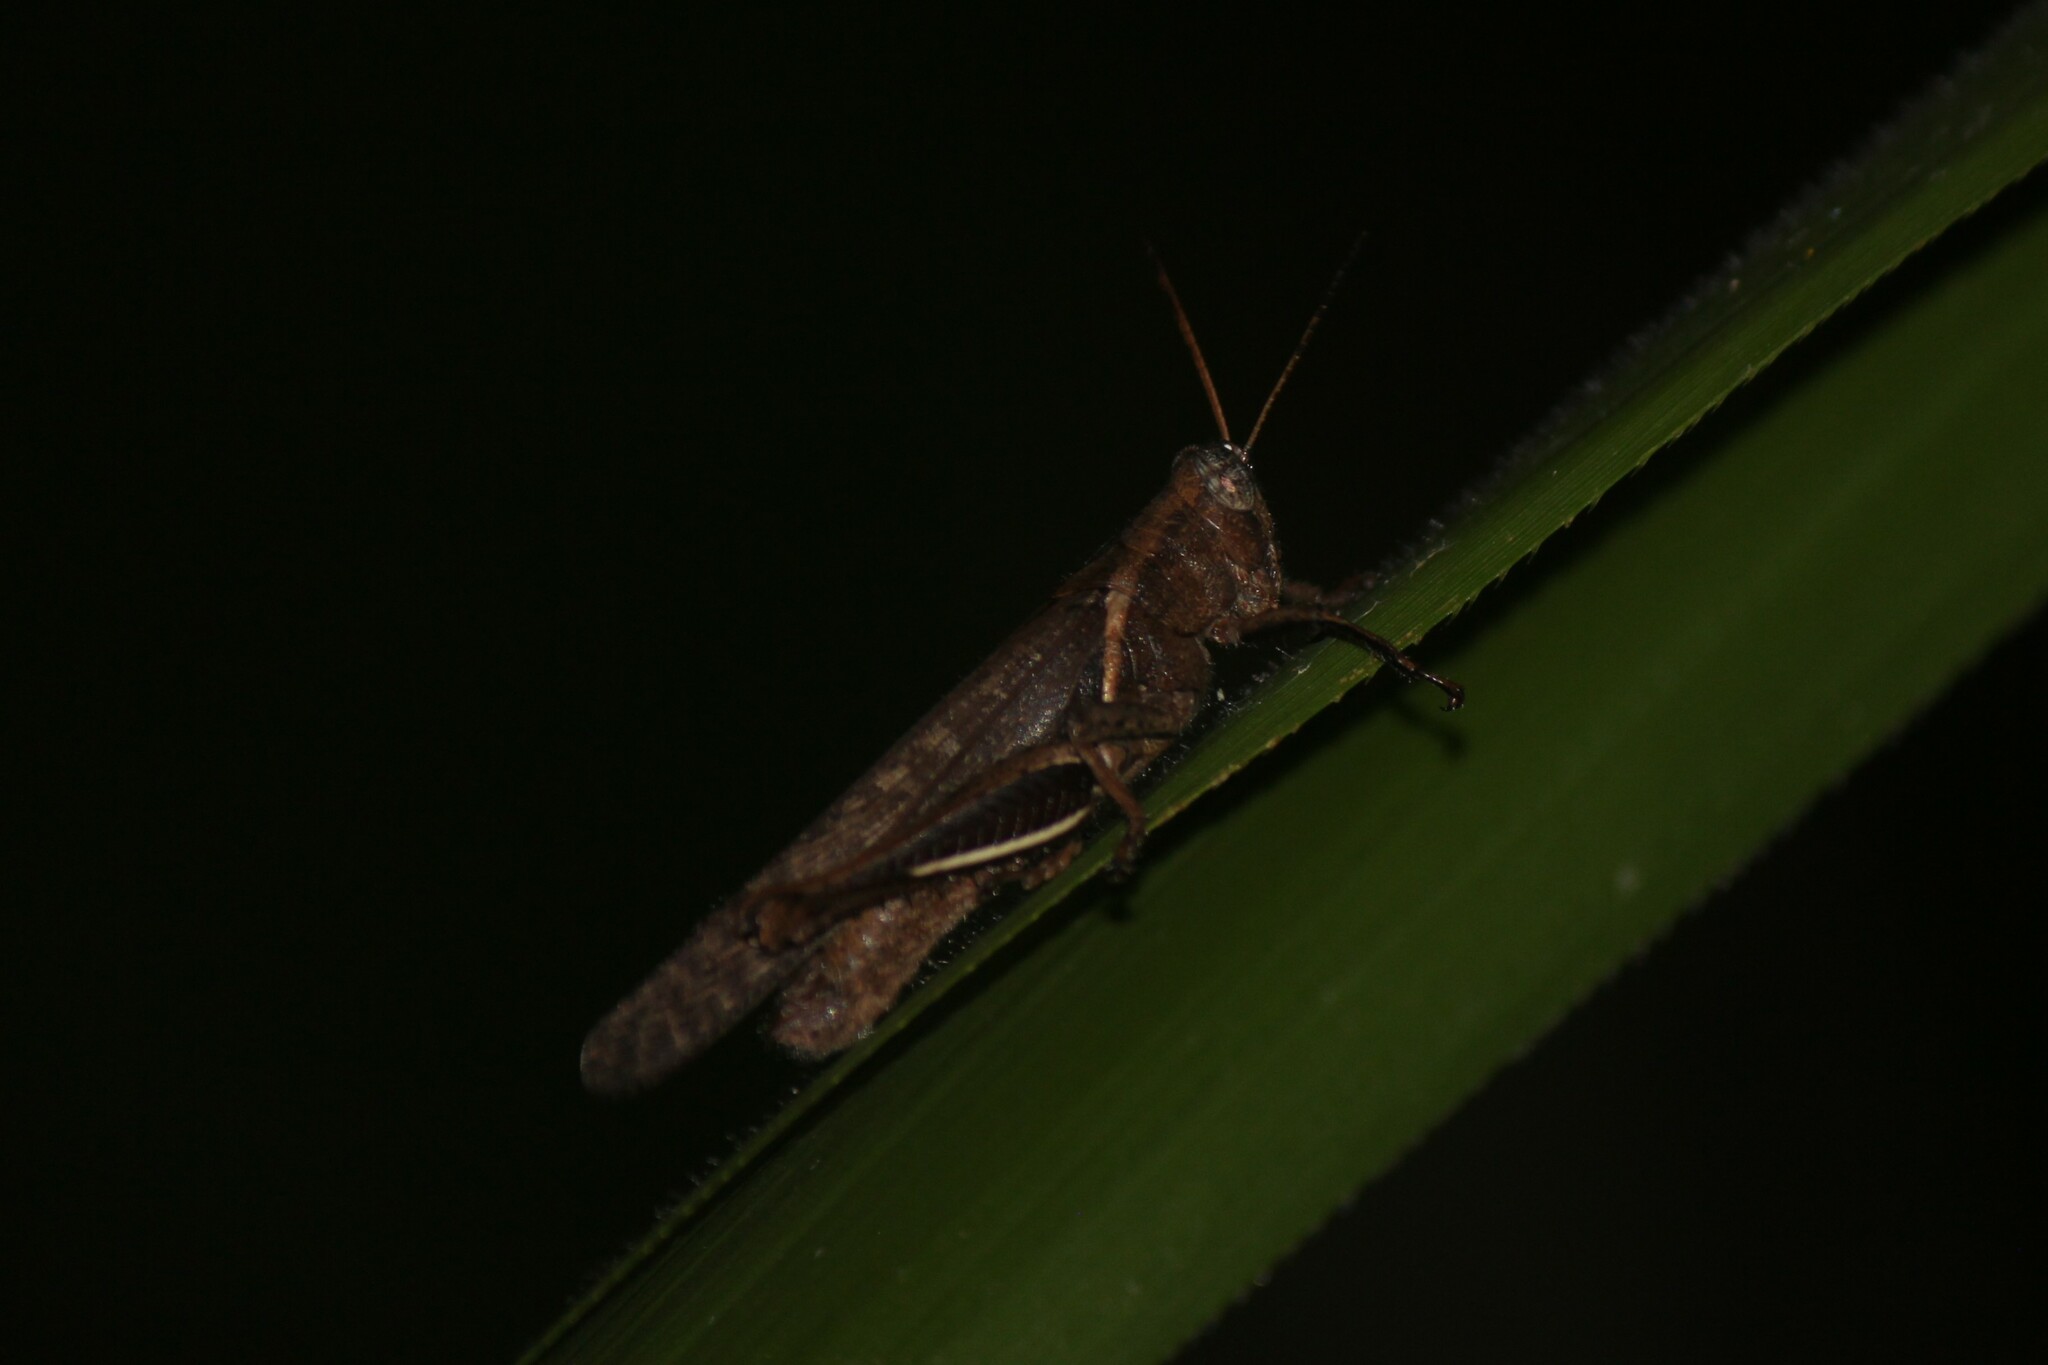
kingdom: Animalia
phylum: Arthropoda
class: Insecta
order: Orthoptera
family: Acrididae
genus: Abracris
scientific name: Abracris flavolineata
